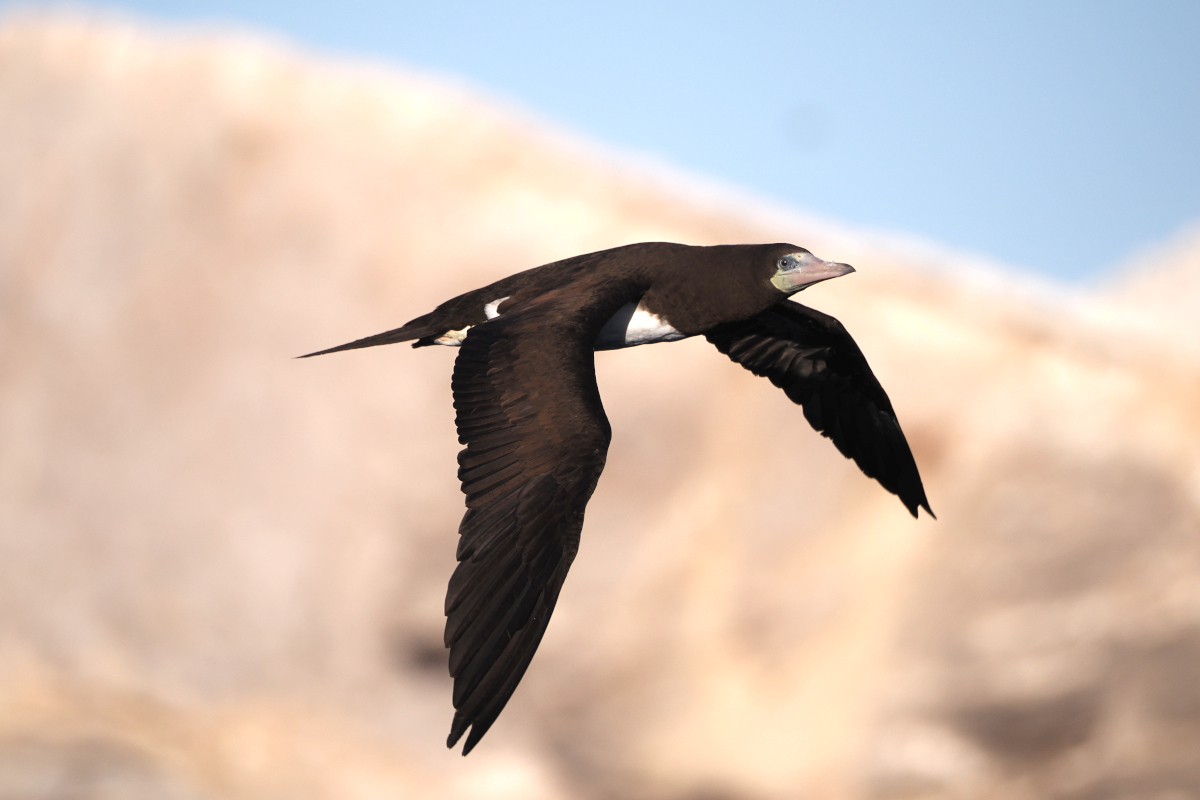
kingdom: Animalia
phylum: Chordata
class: Aves
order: Suliformes
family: Sulidae
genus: Sula
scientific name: Sula leucogaster
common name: Brown booby
